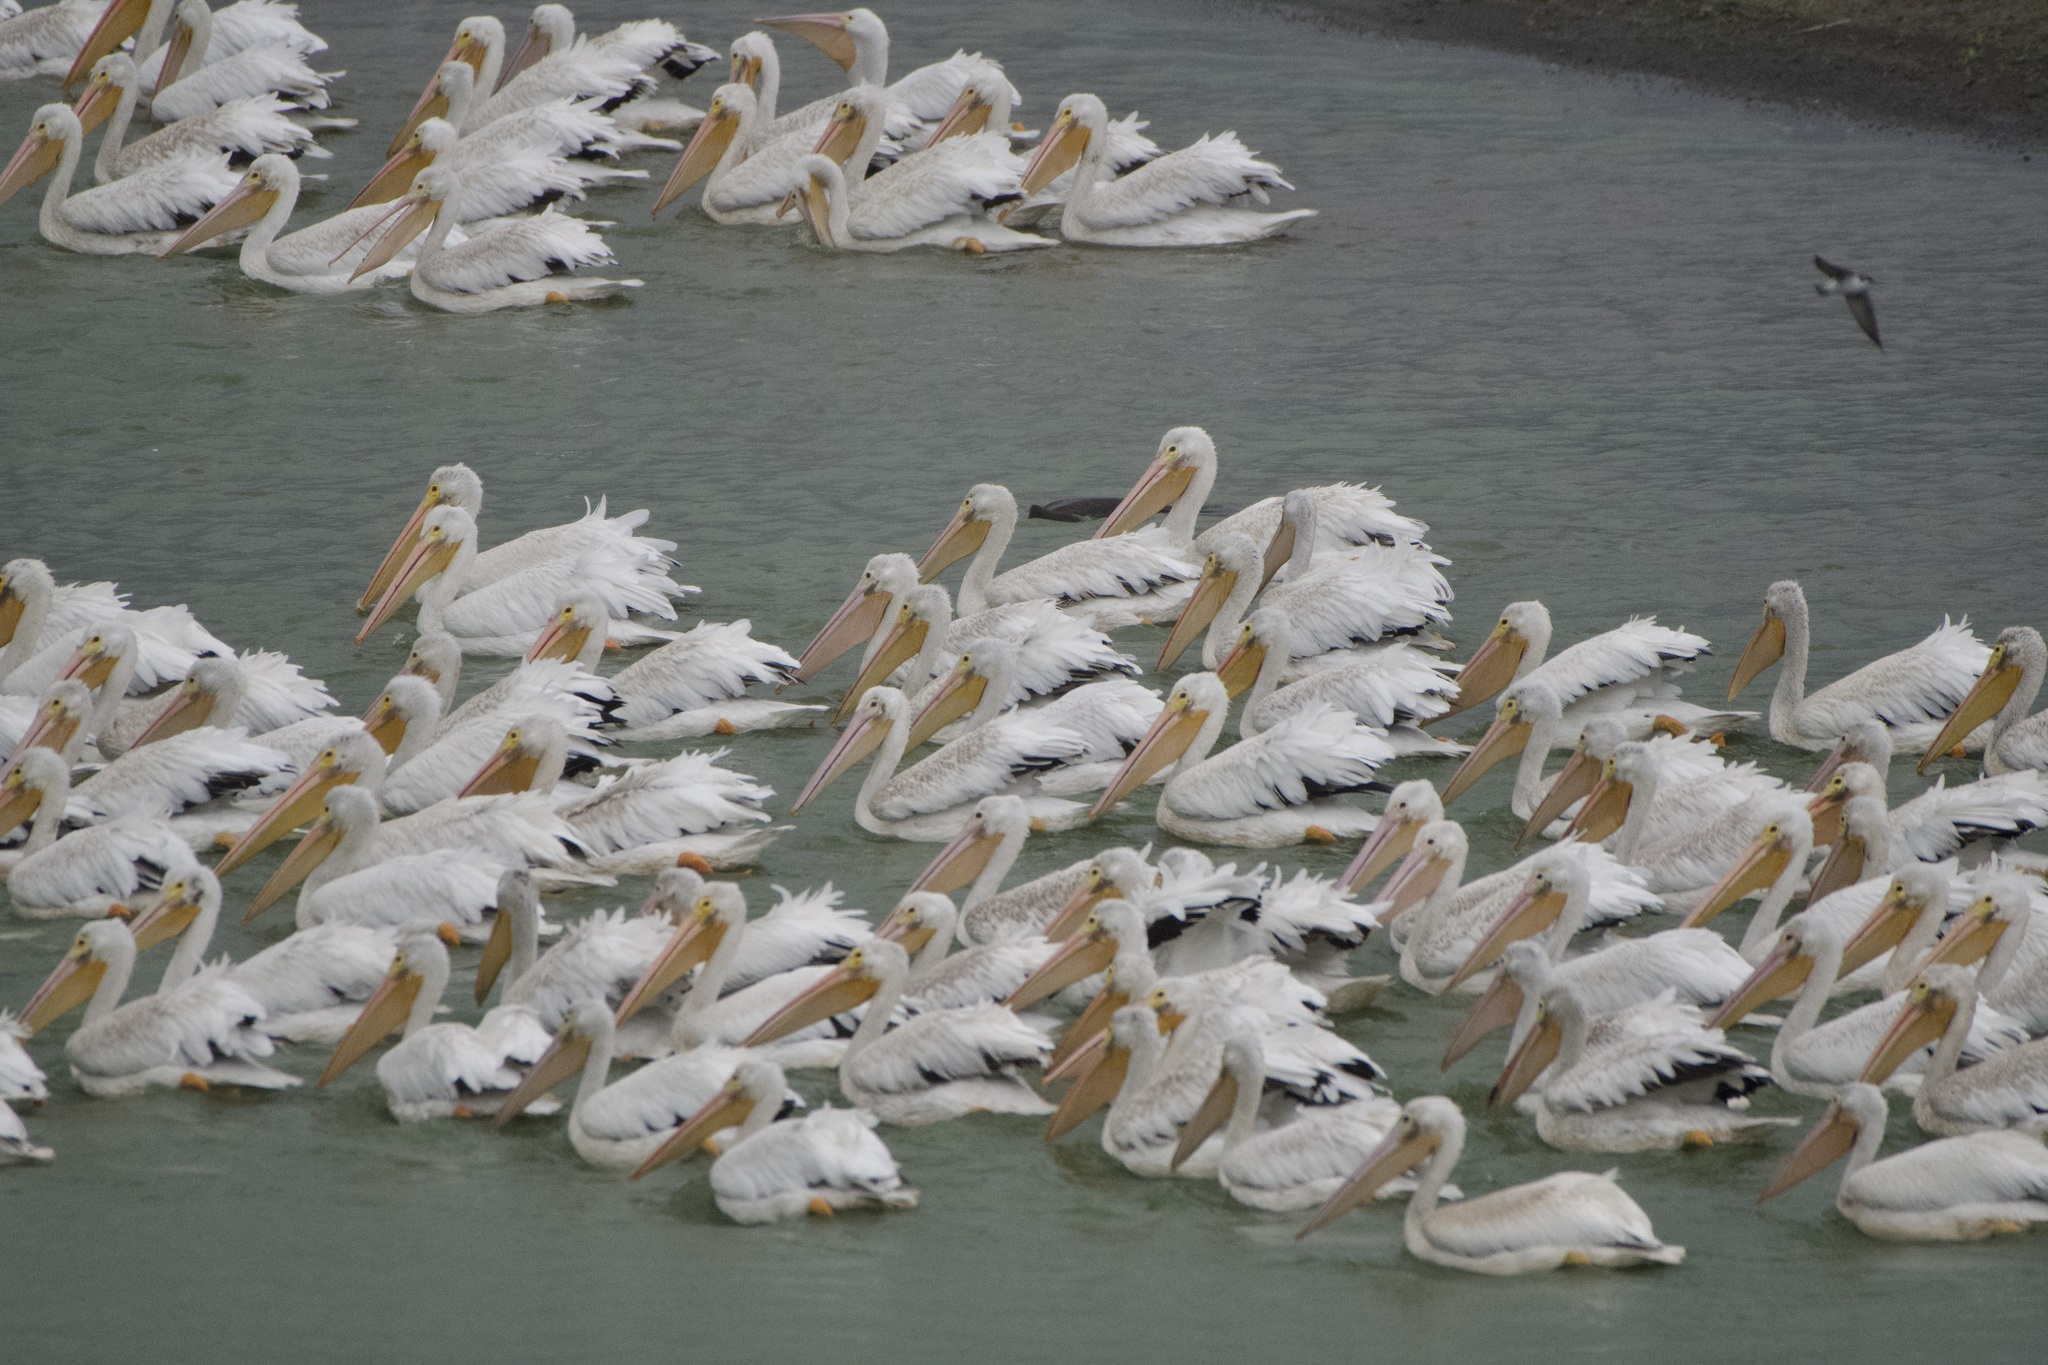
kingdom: Animalia
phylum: Chordata
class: Aves
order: Pelecaniformes
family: Pelecanidae
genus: Pelecanus
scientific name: Pelecanus erythrorhynchos
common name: American white pelican
